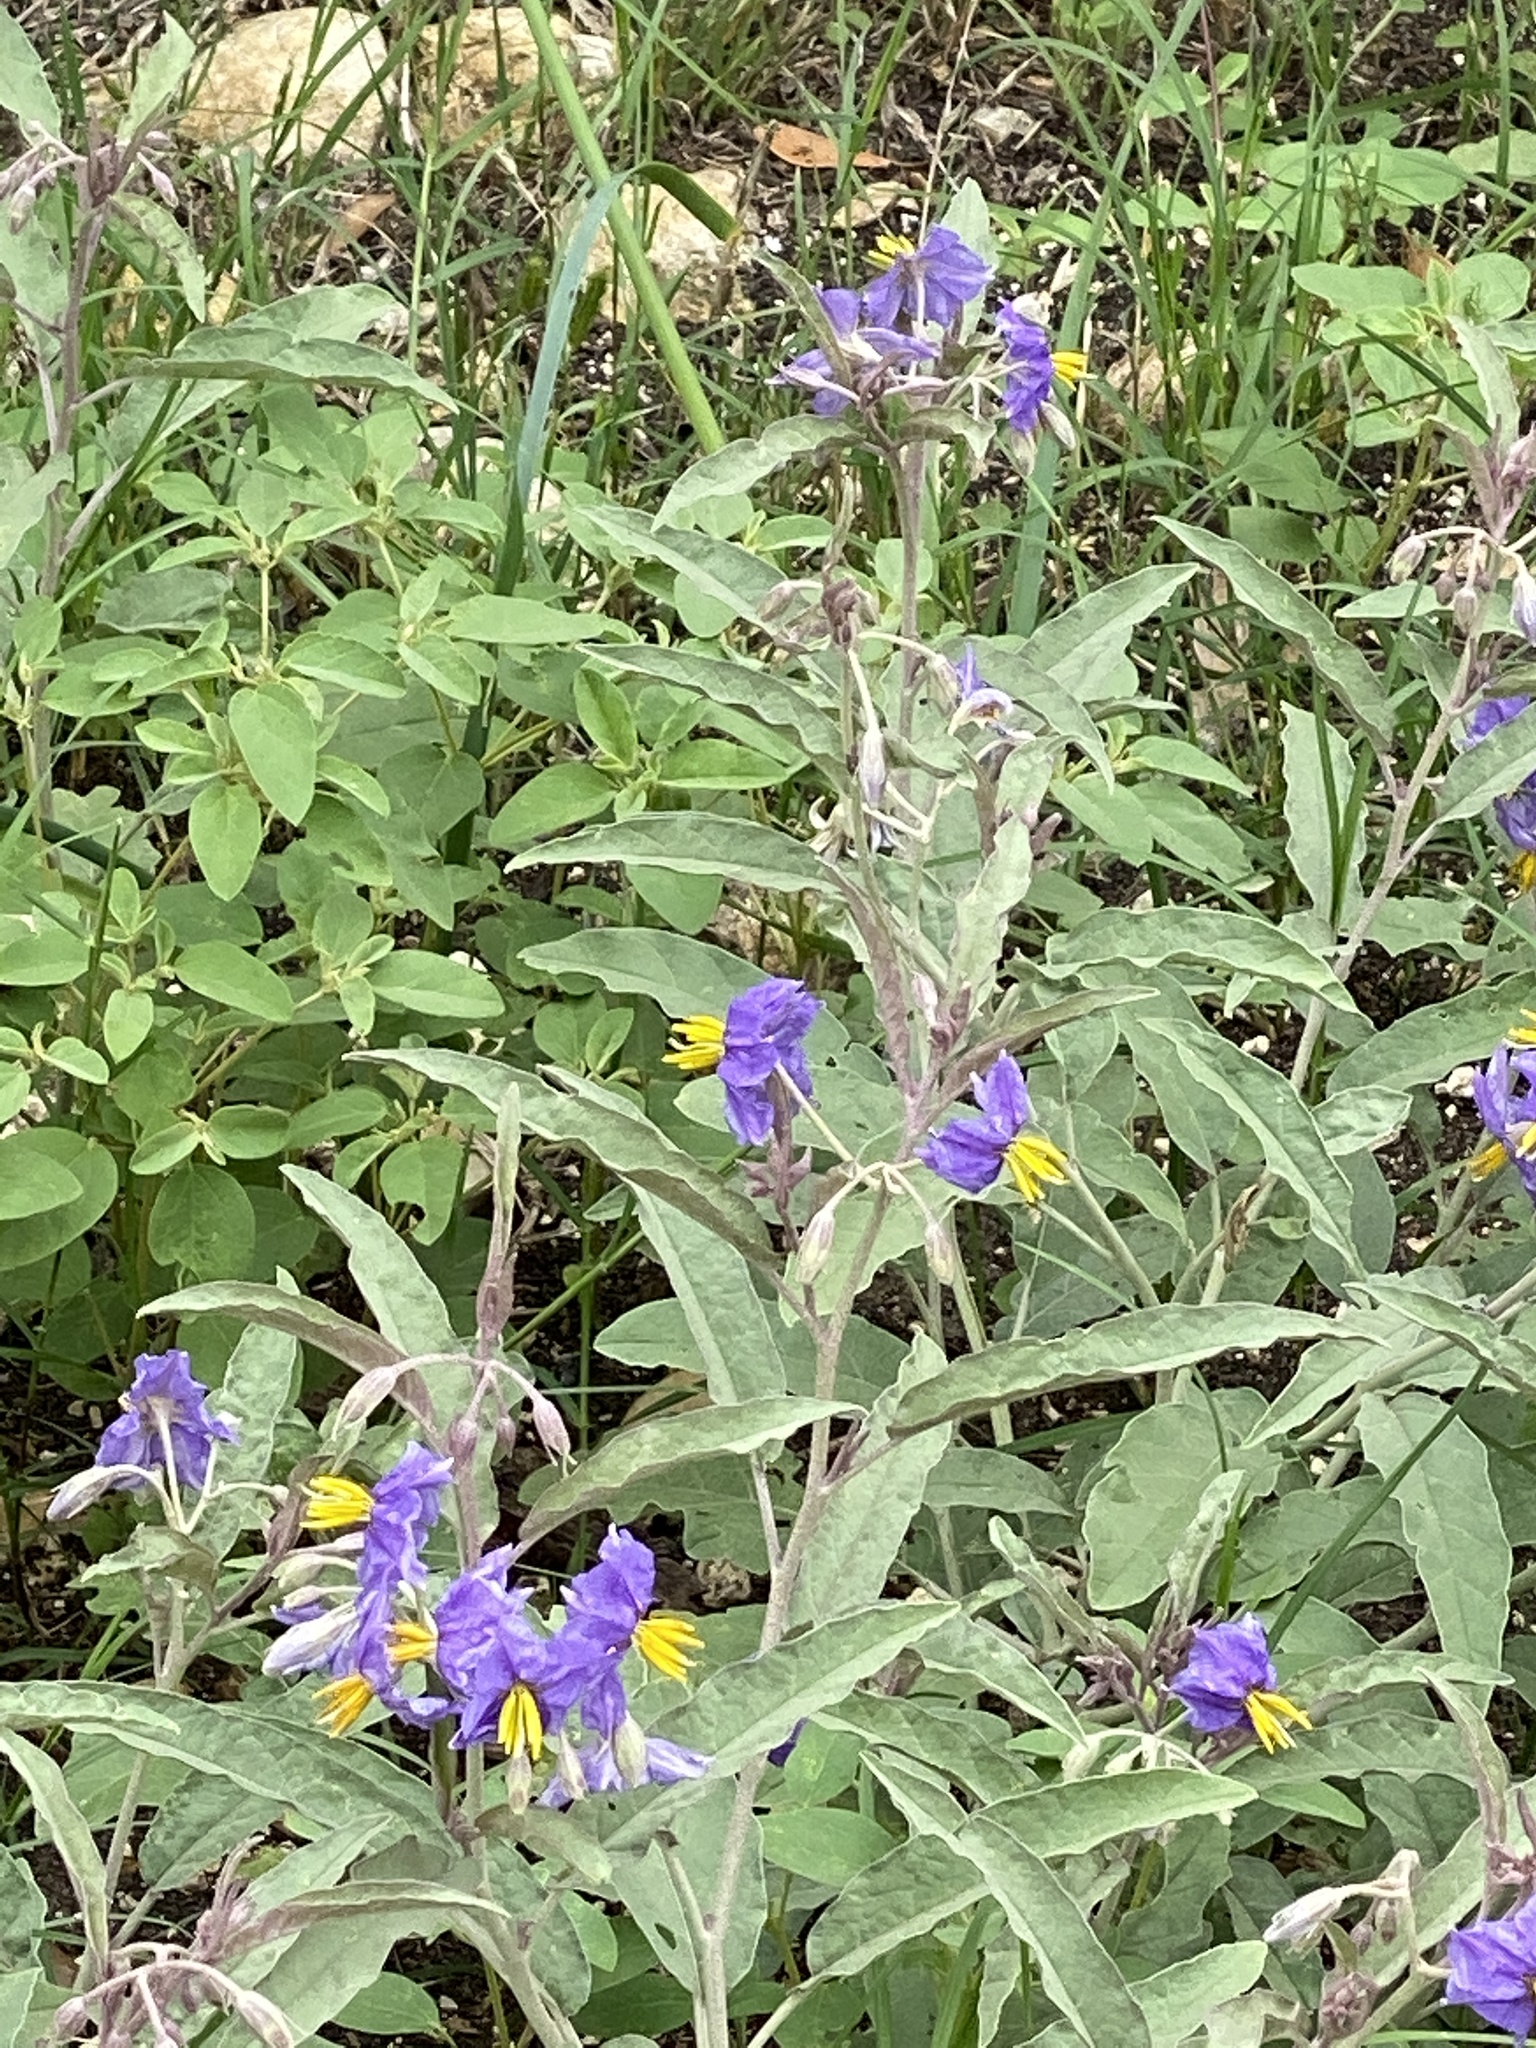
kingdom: Plantae
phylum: Tracheophyta
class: Magnoliopsida
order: Solanales
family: Solanaceae
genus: Solanum
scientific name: Solanum elaeagnifolium
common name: Silverleaf nightshade
